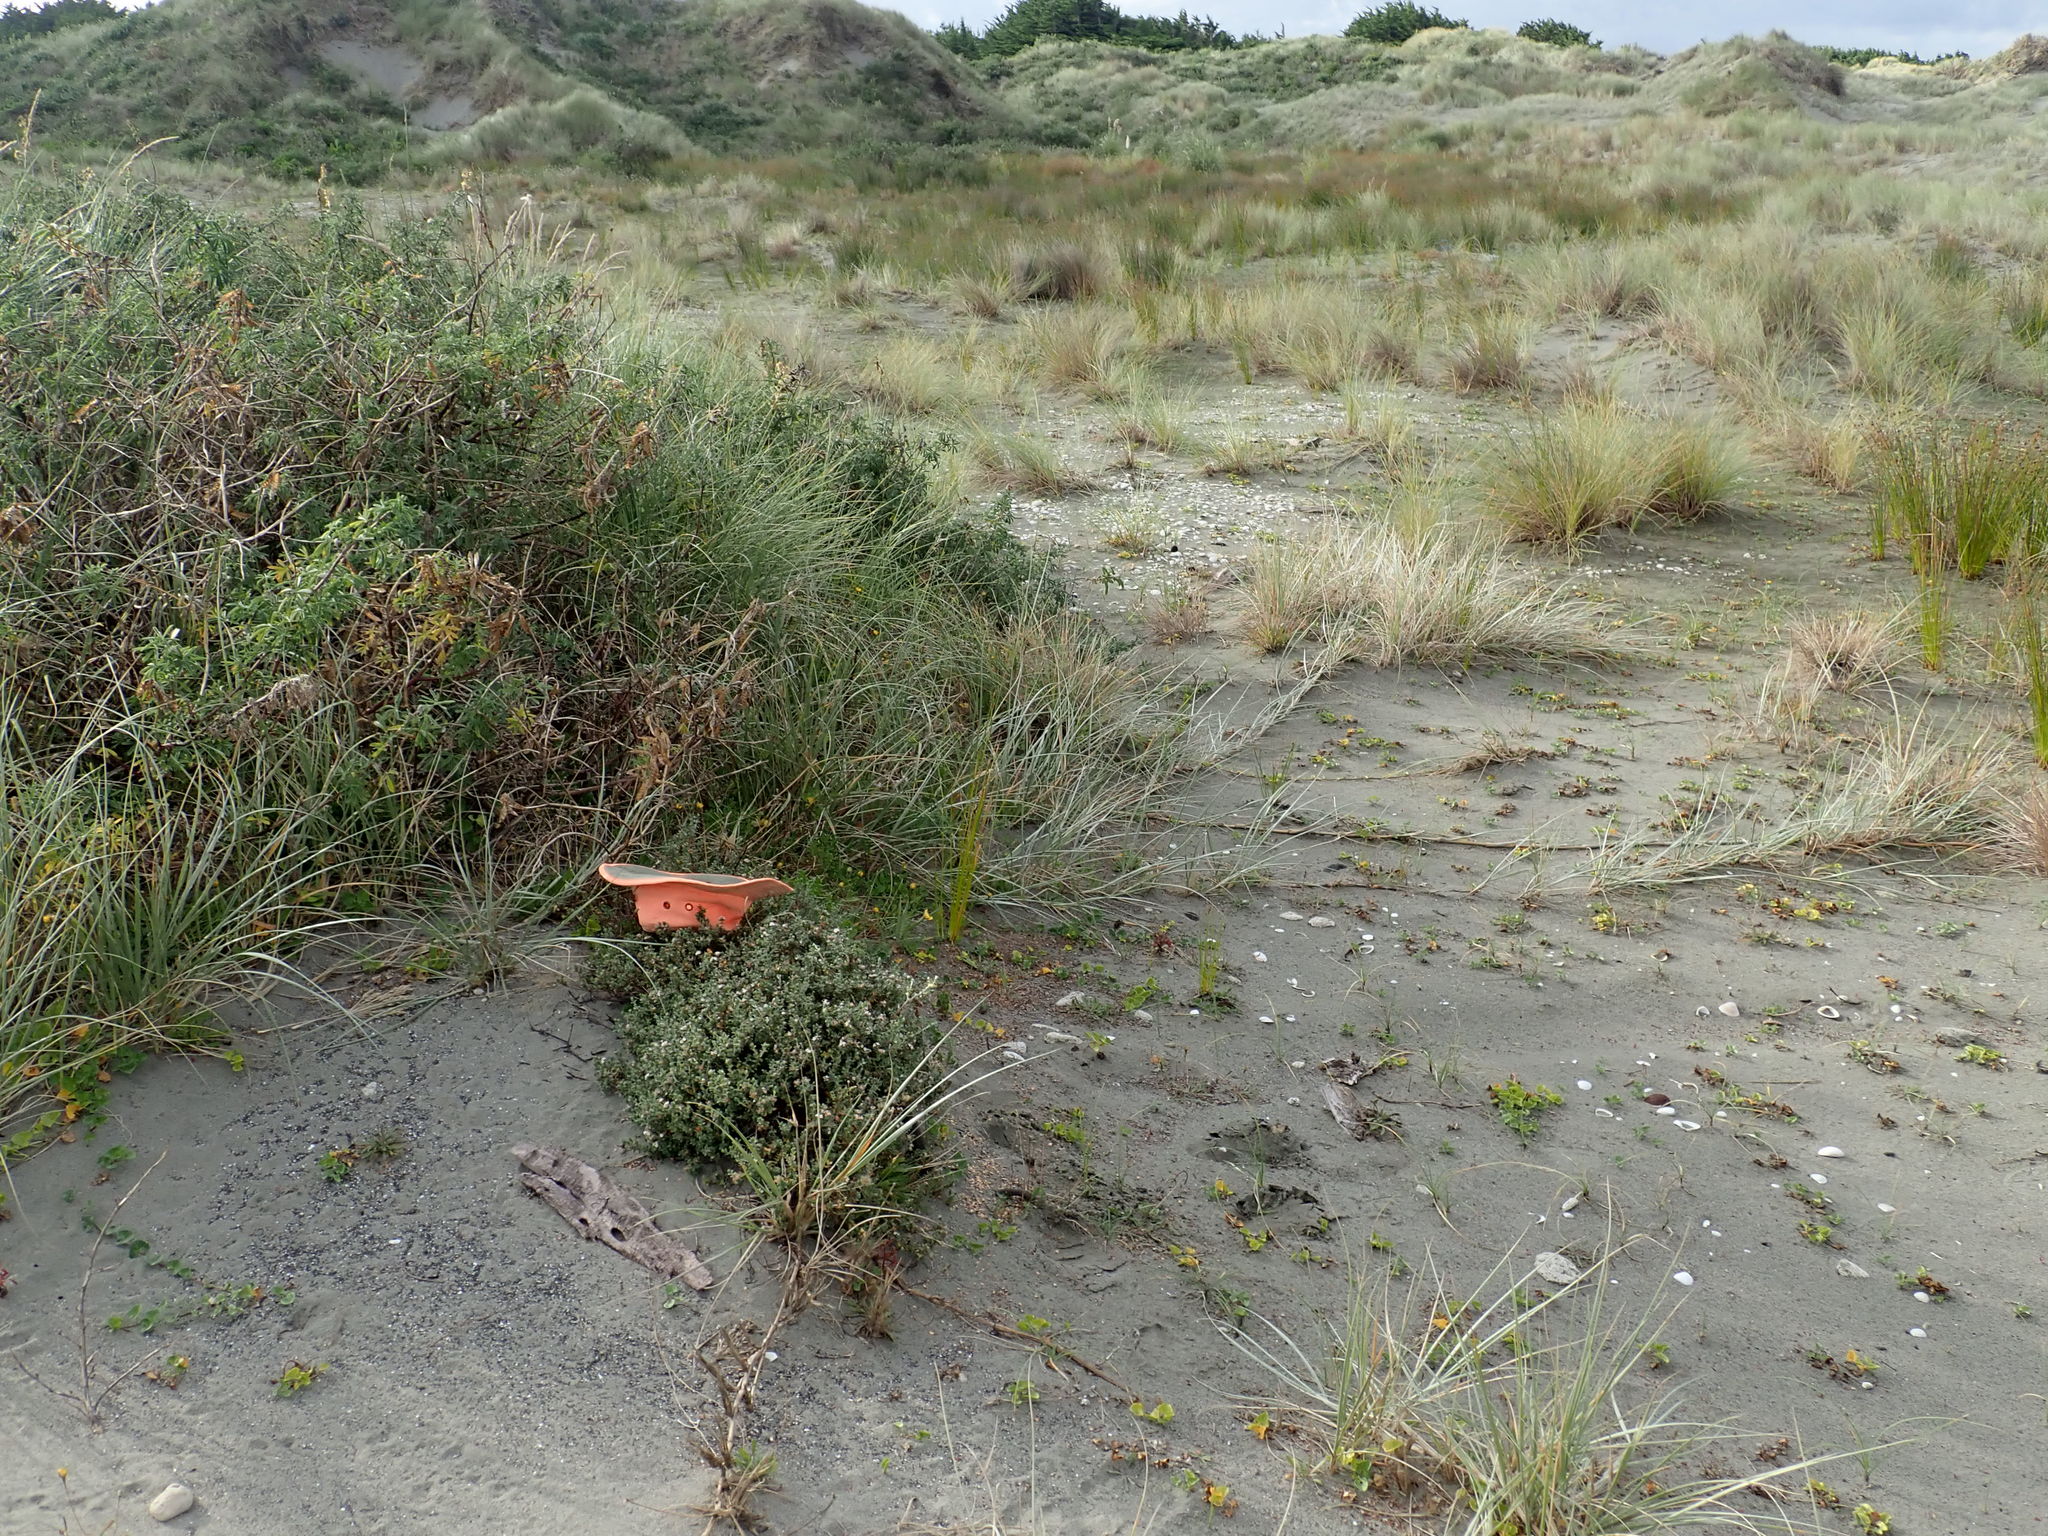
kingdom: Plantae
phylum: Tracheophyta
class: Magnoliopsida
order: Malvales
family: Thymelaeaceae
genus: Pimelea
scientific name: Pimelea villosa
